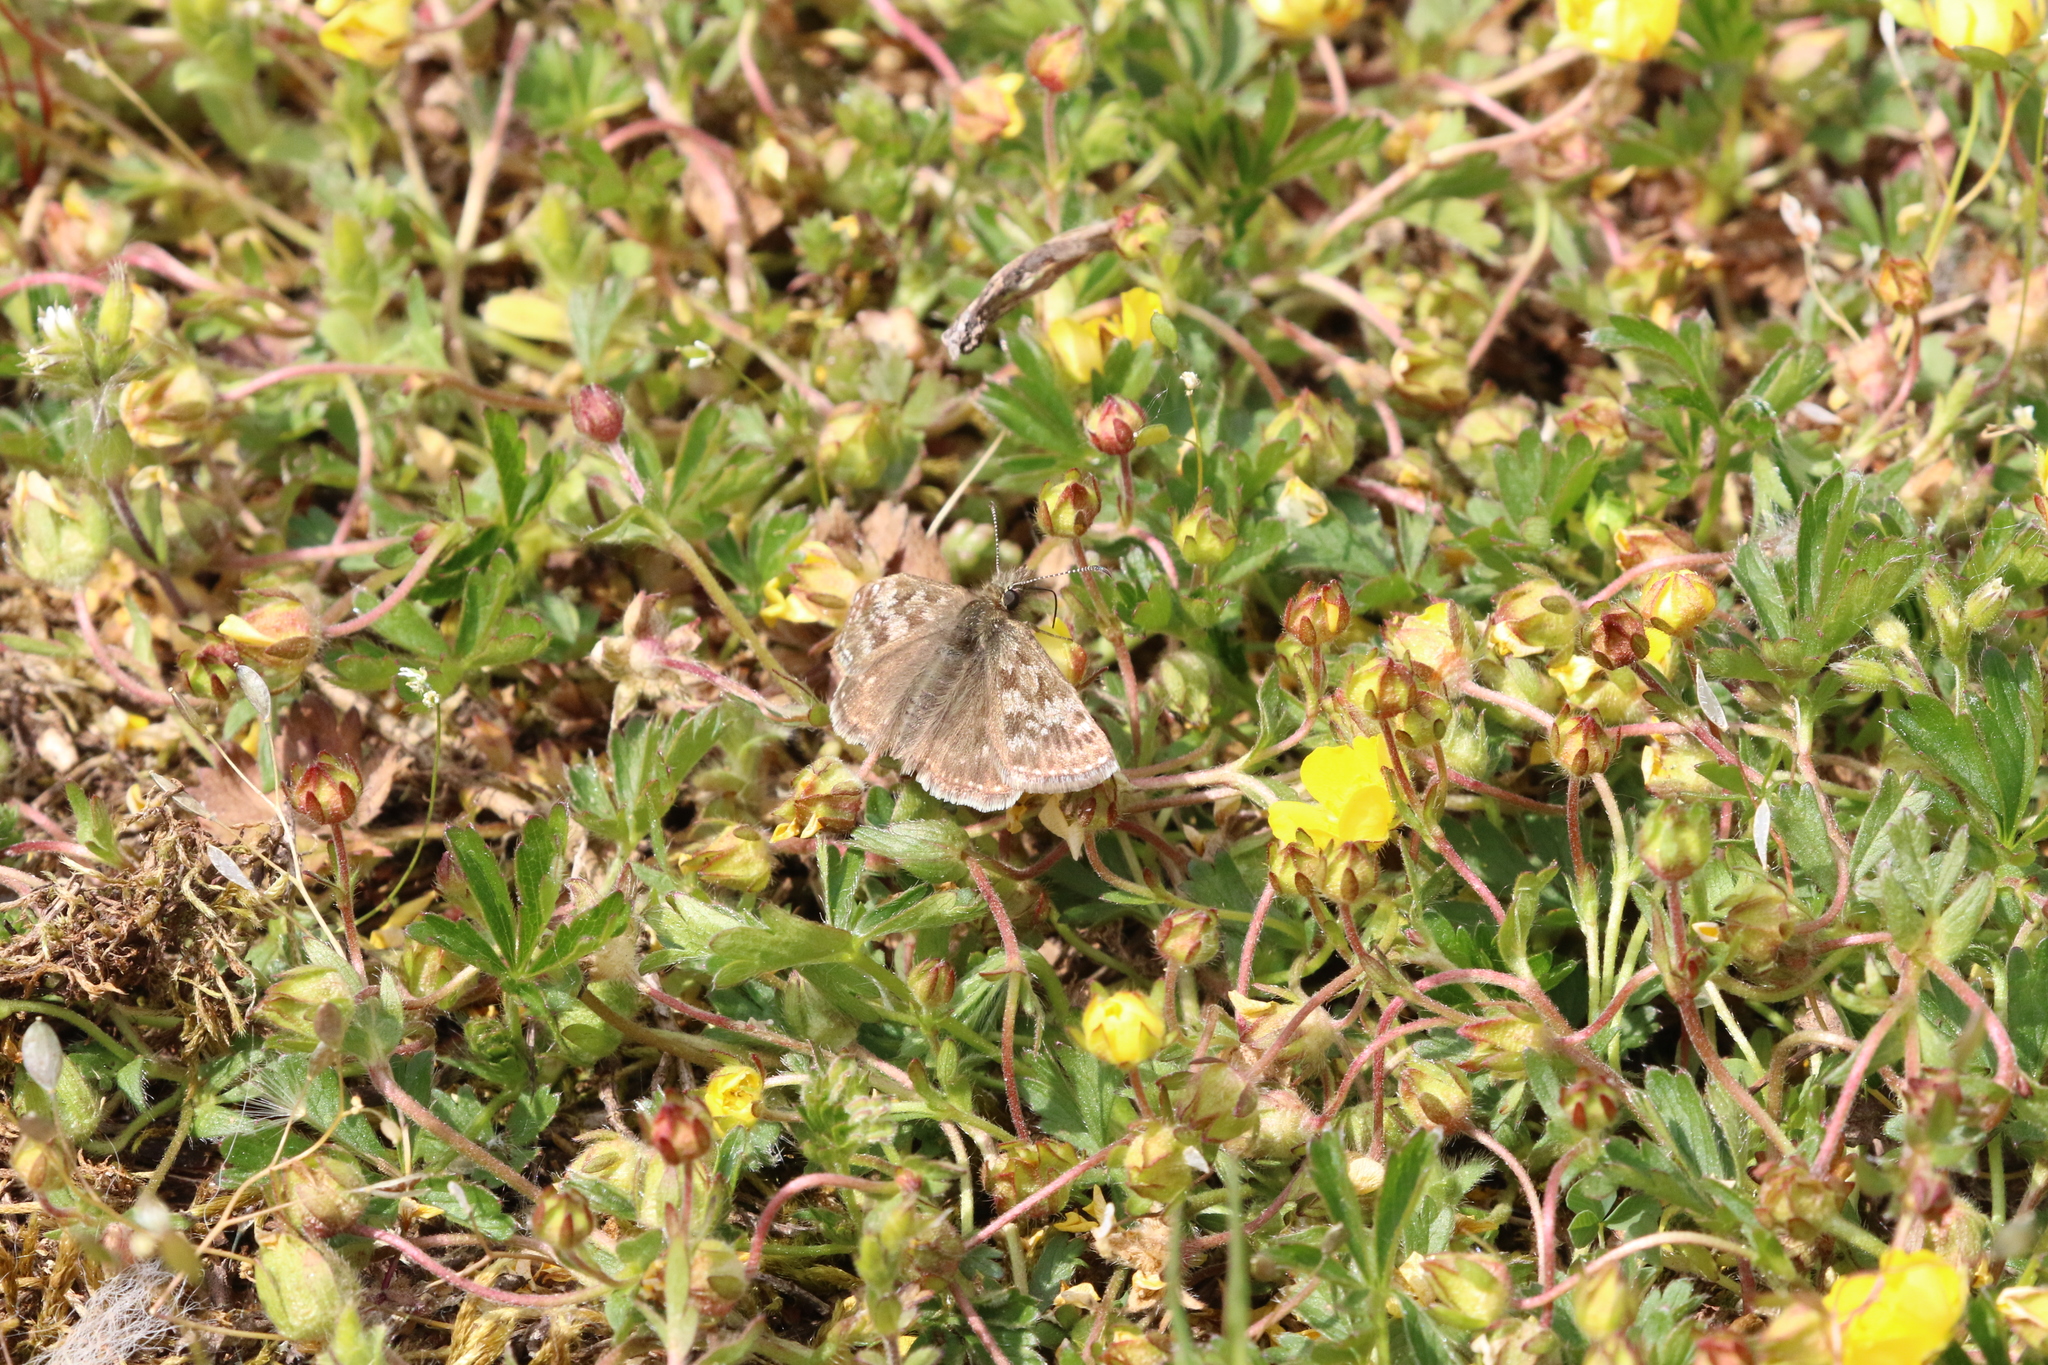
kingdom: Animalia
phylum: Arthropoda
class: Insecta
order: Lepidoptera
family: Hesperiidae
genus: Erynnis
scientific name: Erynnis tages
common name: Dingy skipper
